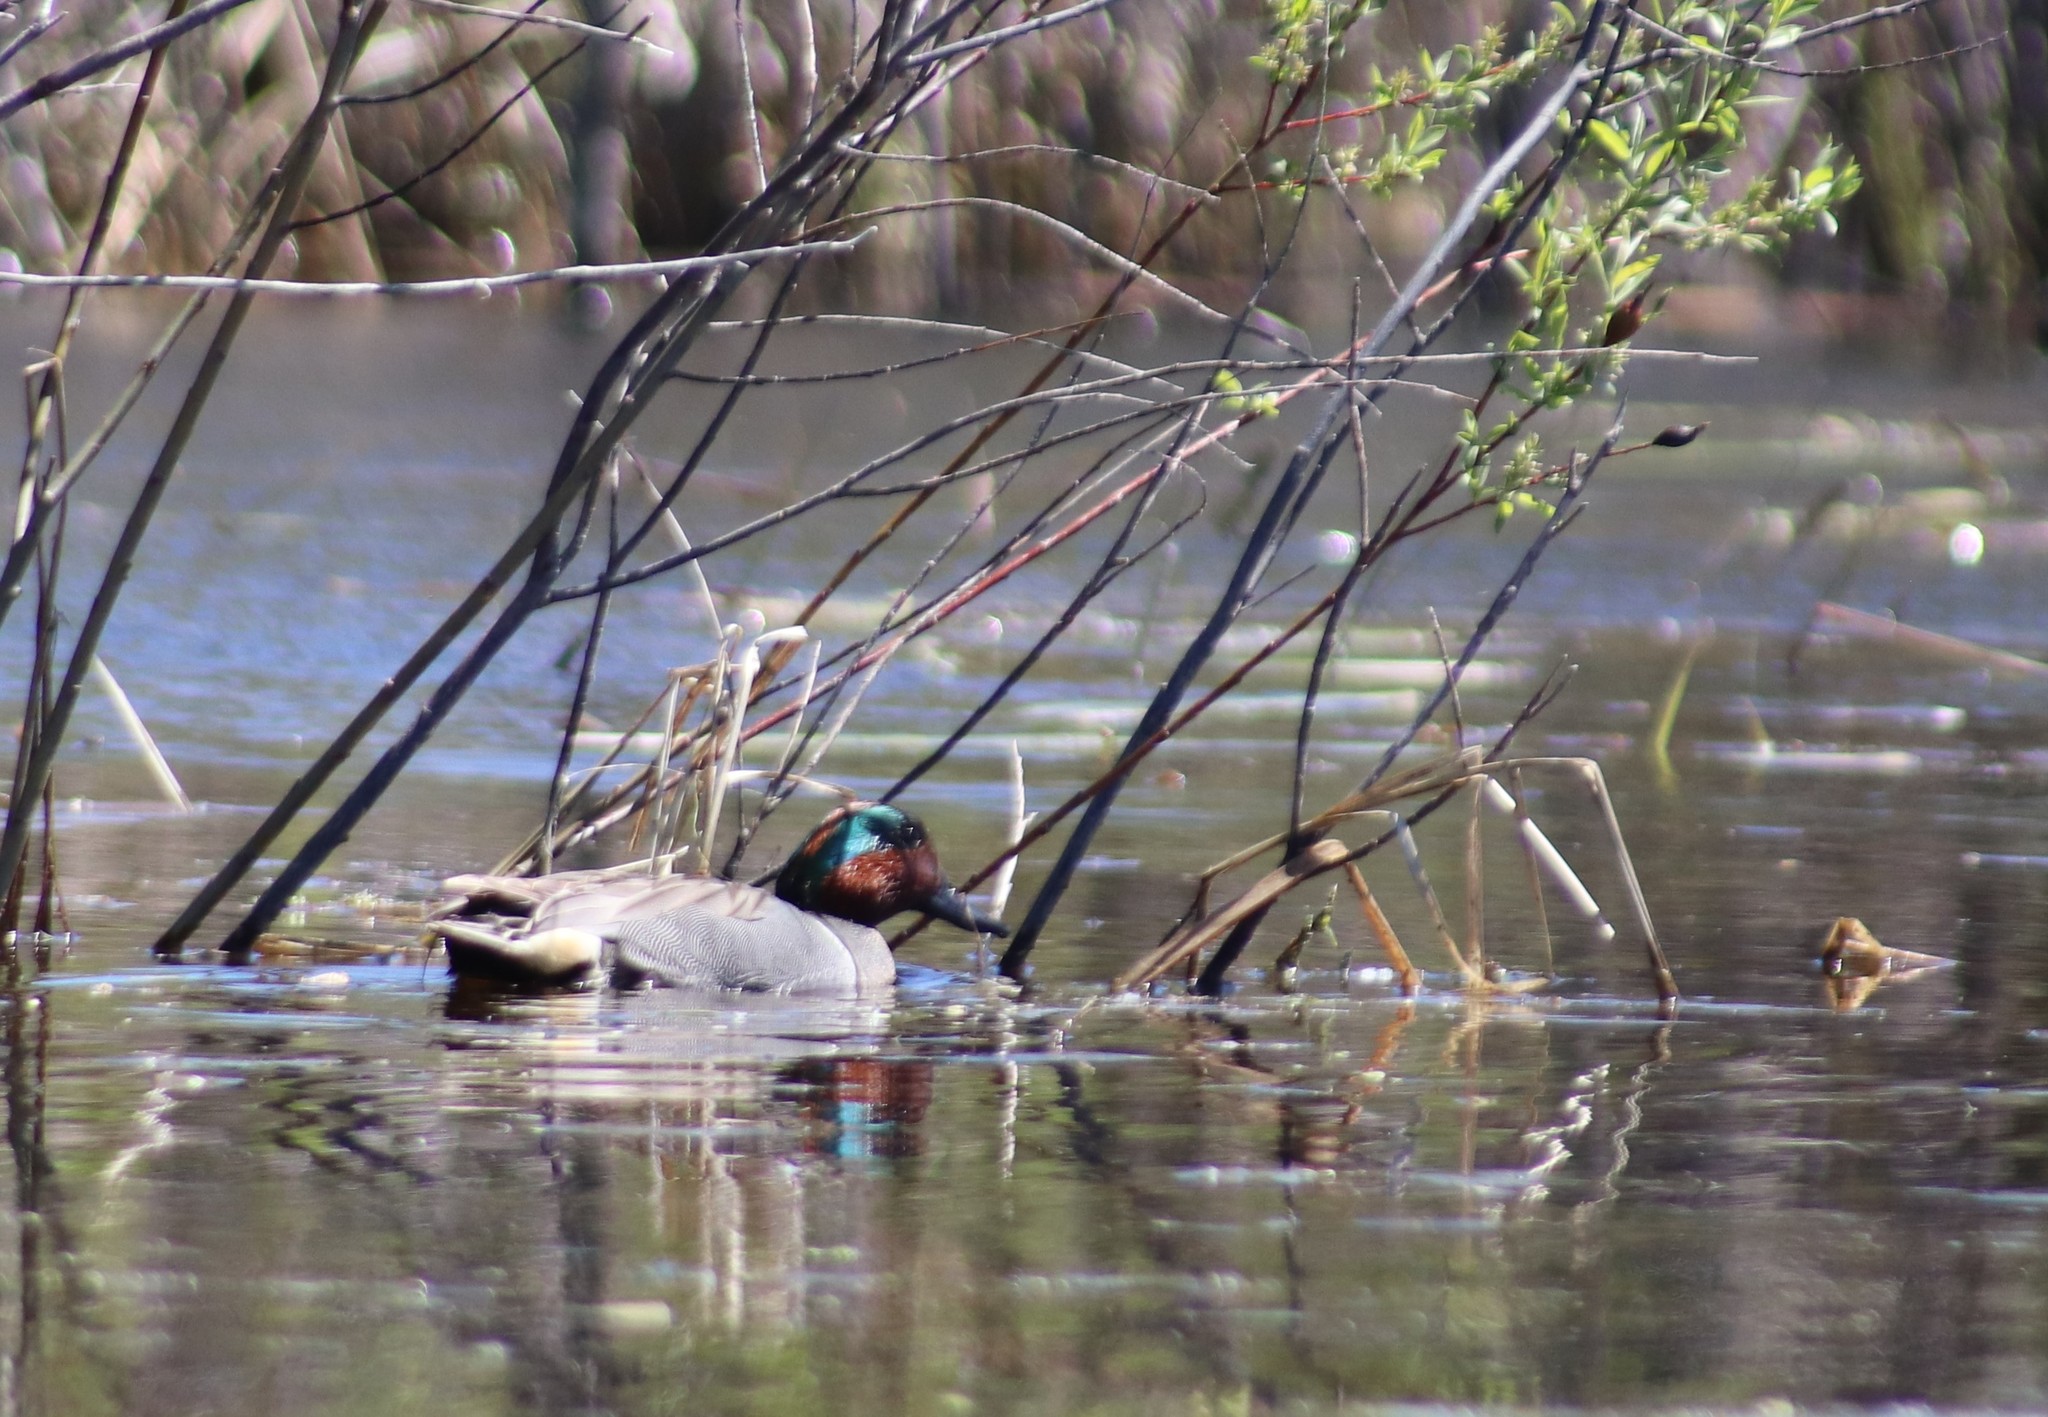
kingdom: Animalia
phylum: Chordata
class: Aves
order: Anseriformes
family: Anatidae
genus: Anas
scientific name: Anas crecca
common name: Eurasian teal
